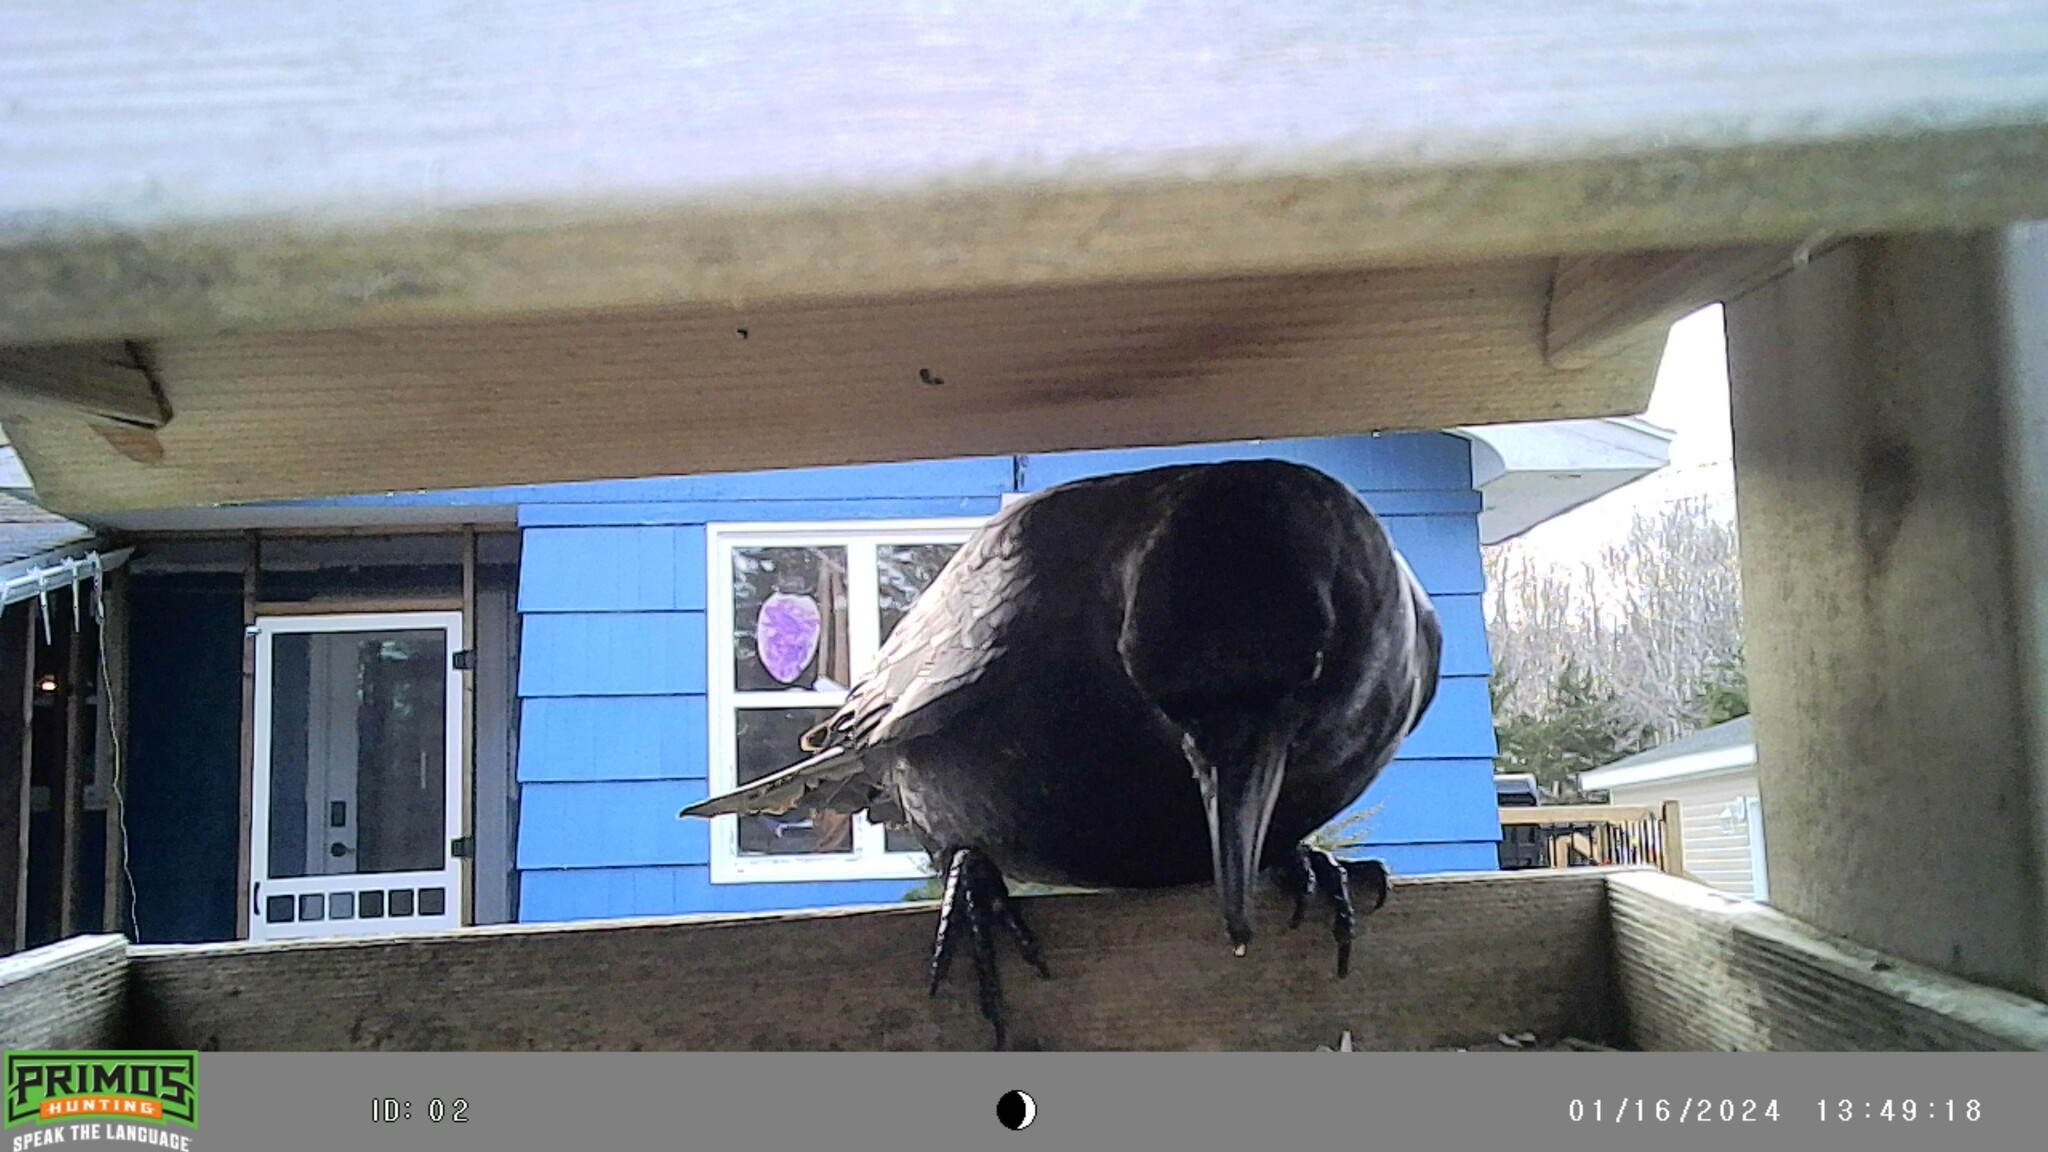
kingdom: Animalia
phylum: Chordata
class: Aves
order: Passeriformes
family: Corvidae
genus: Corvus
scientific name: Corvus brachyrhynchos
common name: American crow
